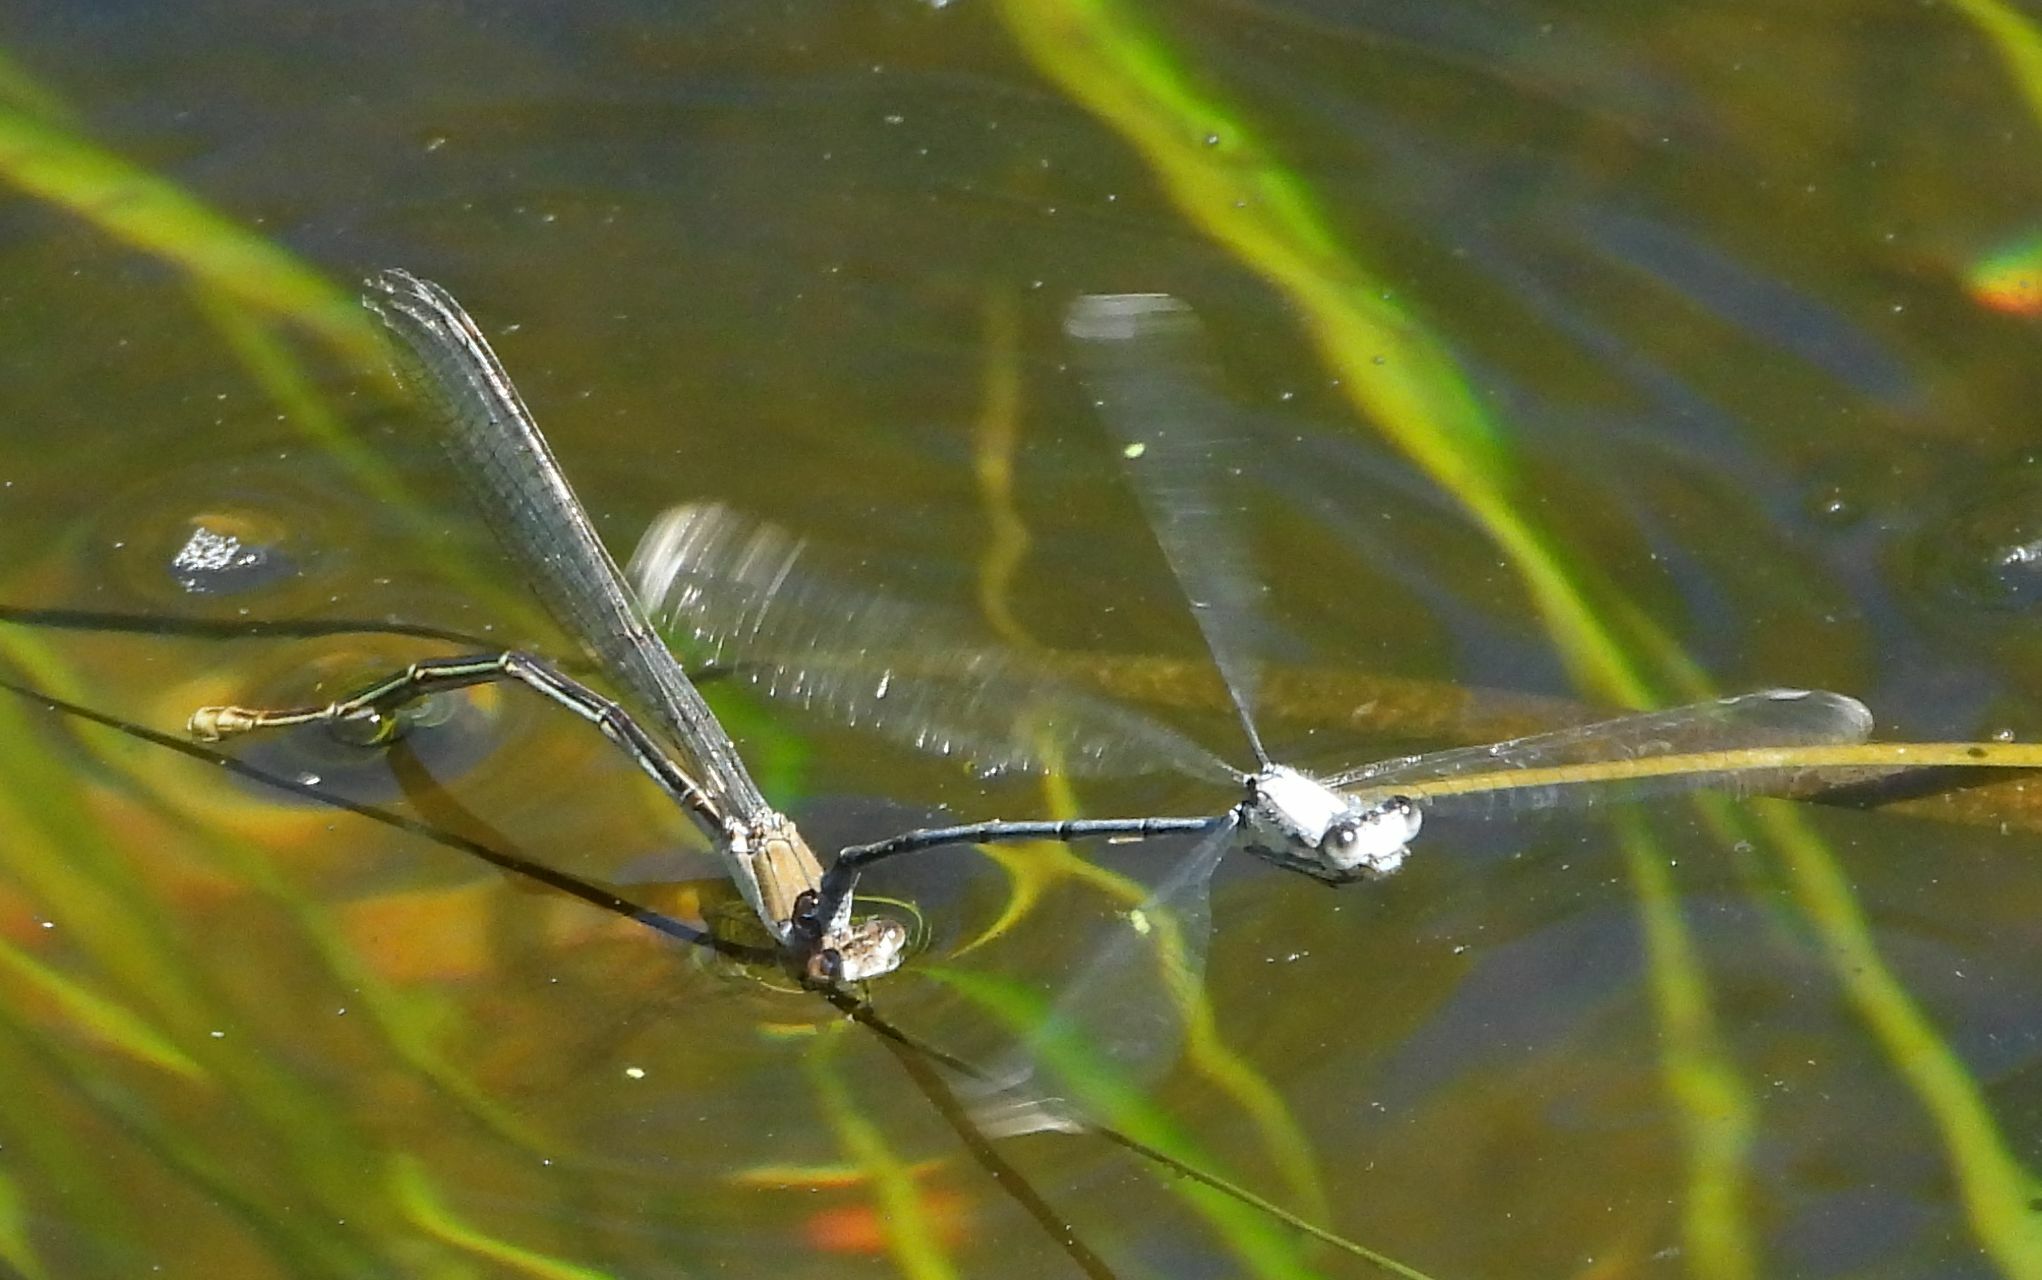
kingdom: Animalia
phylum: Arthropoda
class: Insecta
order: Odonata
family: Coenagrionidae
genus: Argia
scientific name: Argia moesta
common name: Powdered dancer
